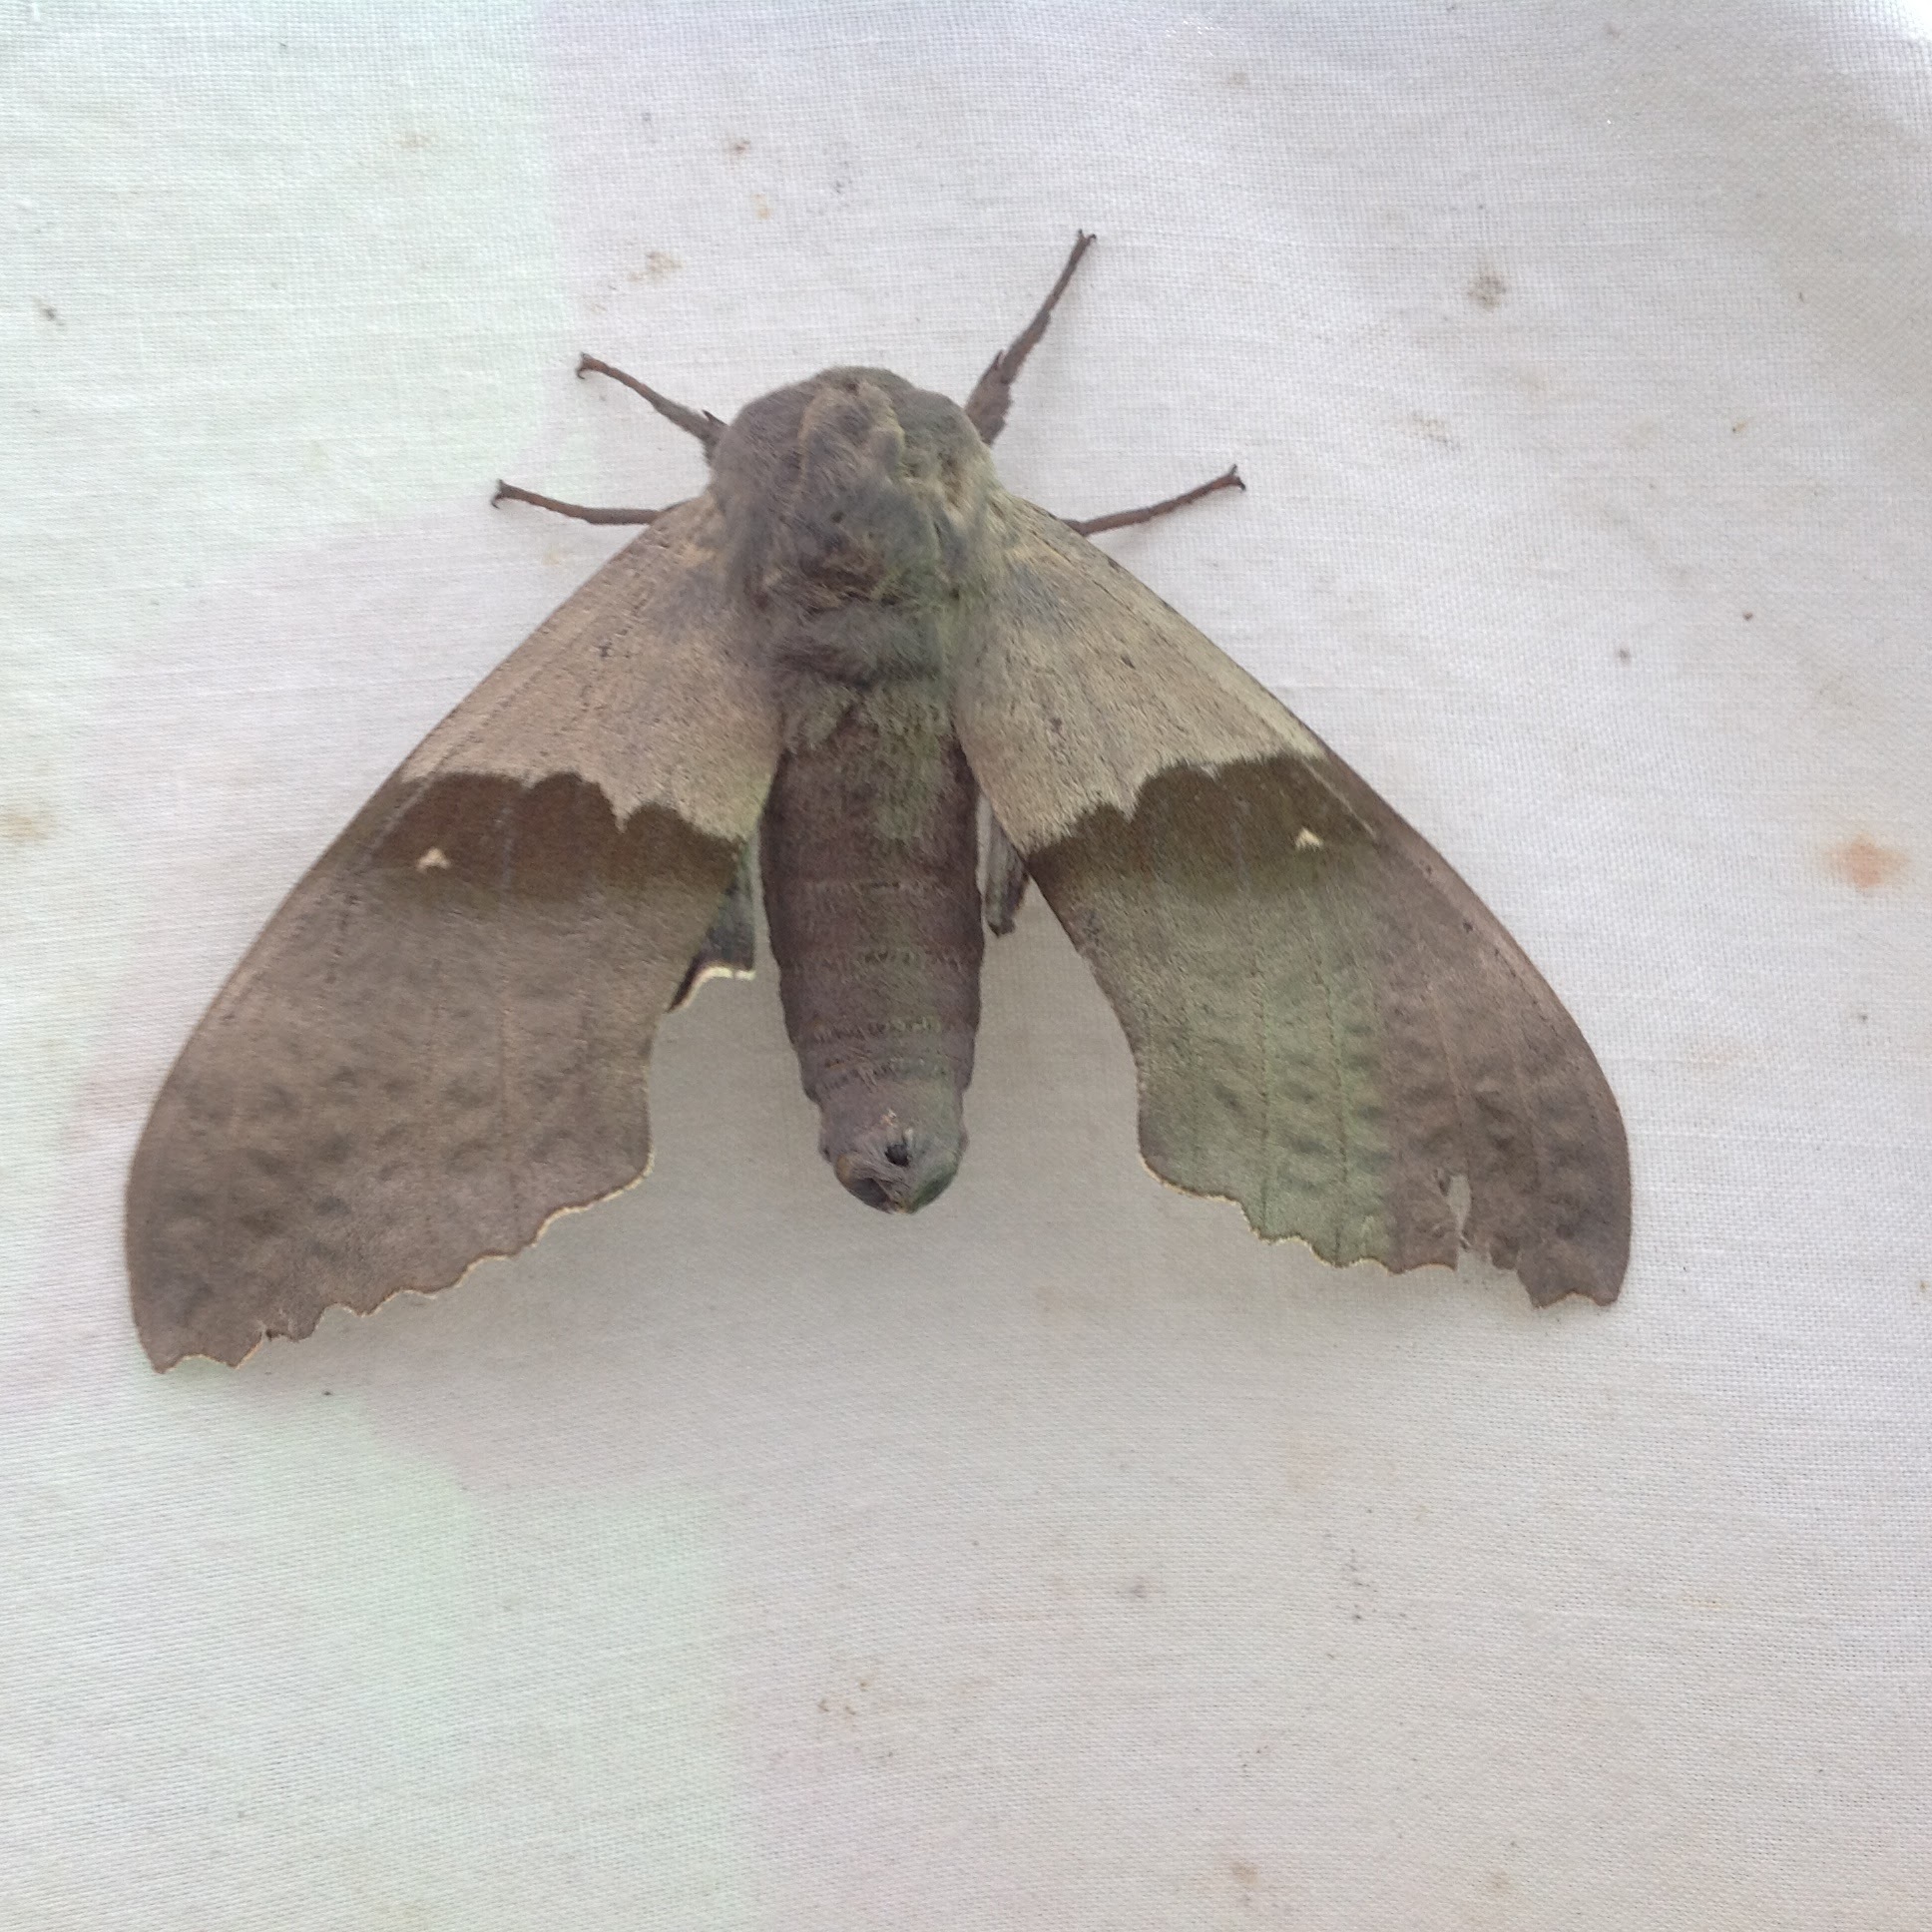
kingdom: Animalia
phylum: Arthropoda
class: Insecta
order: Lepidoptera
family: Sphingidae
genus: Pachysphinx
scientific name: Pachysphinx modesta
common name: Big poplar sphinx
